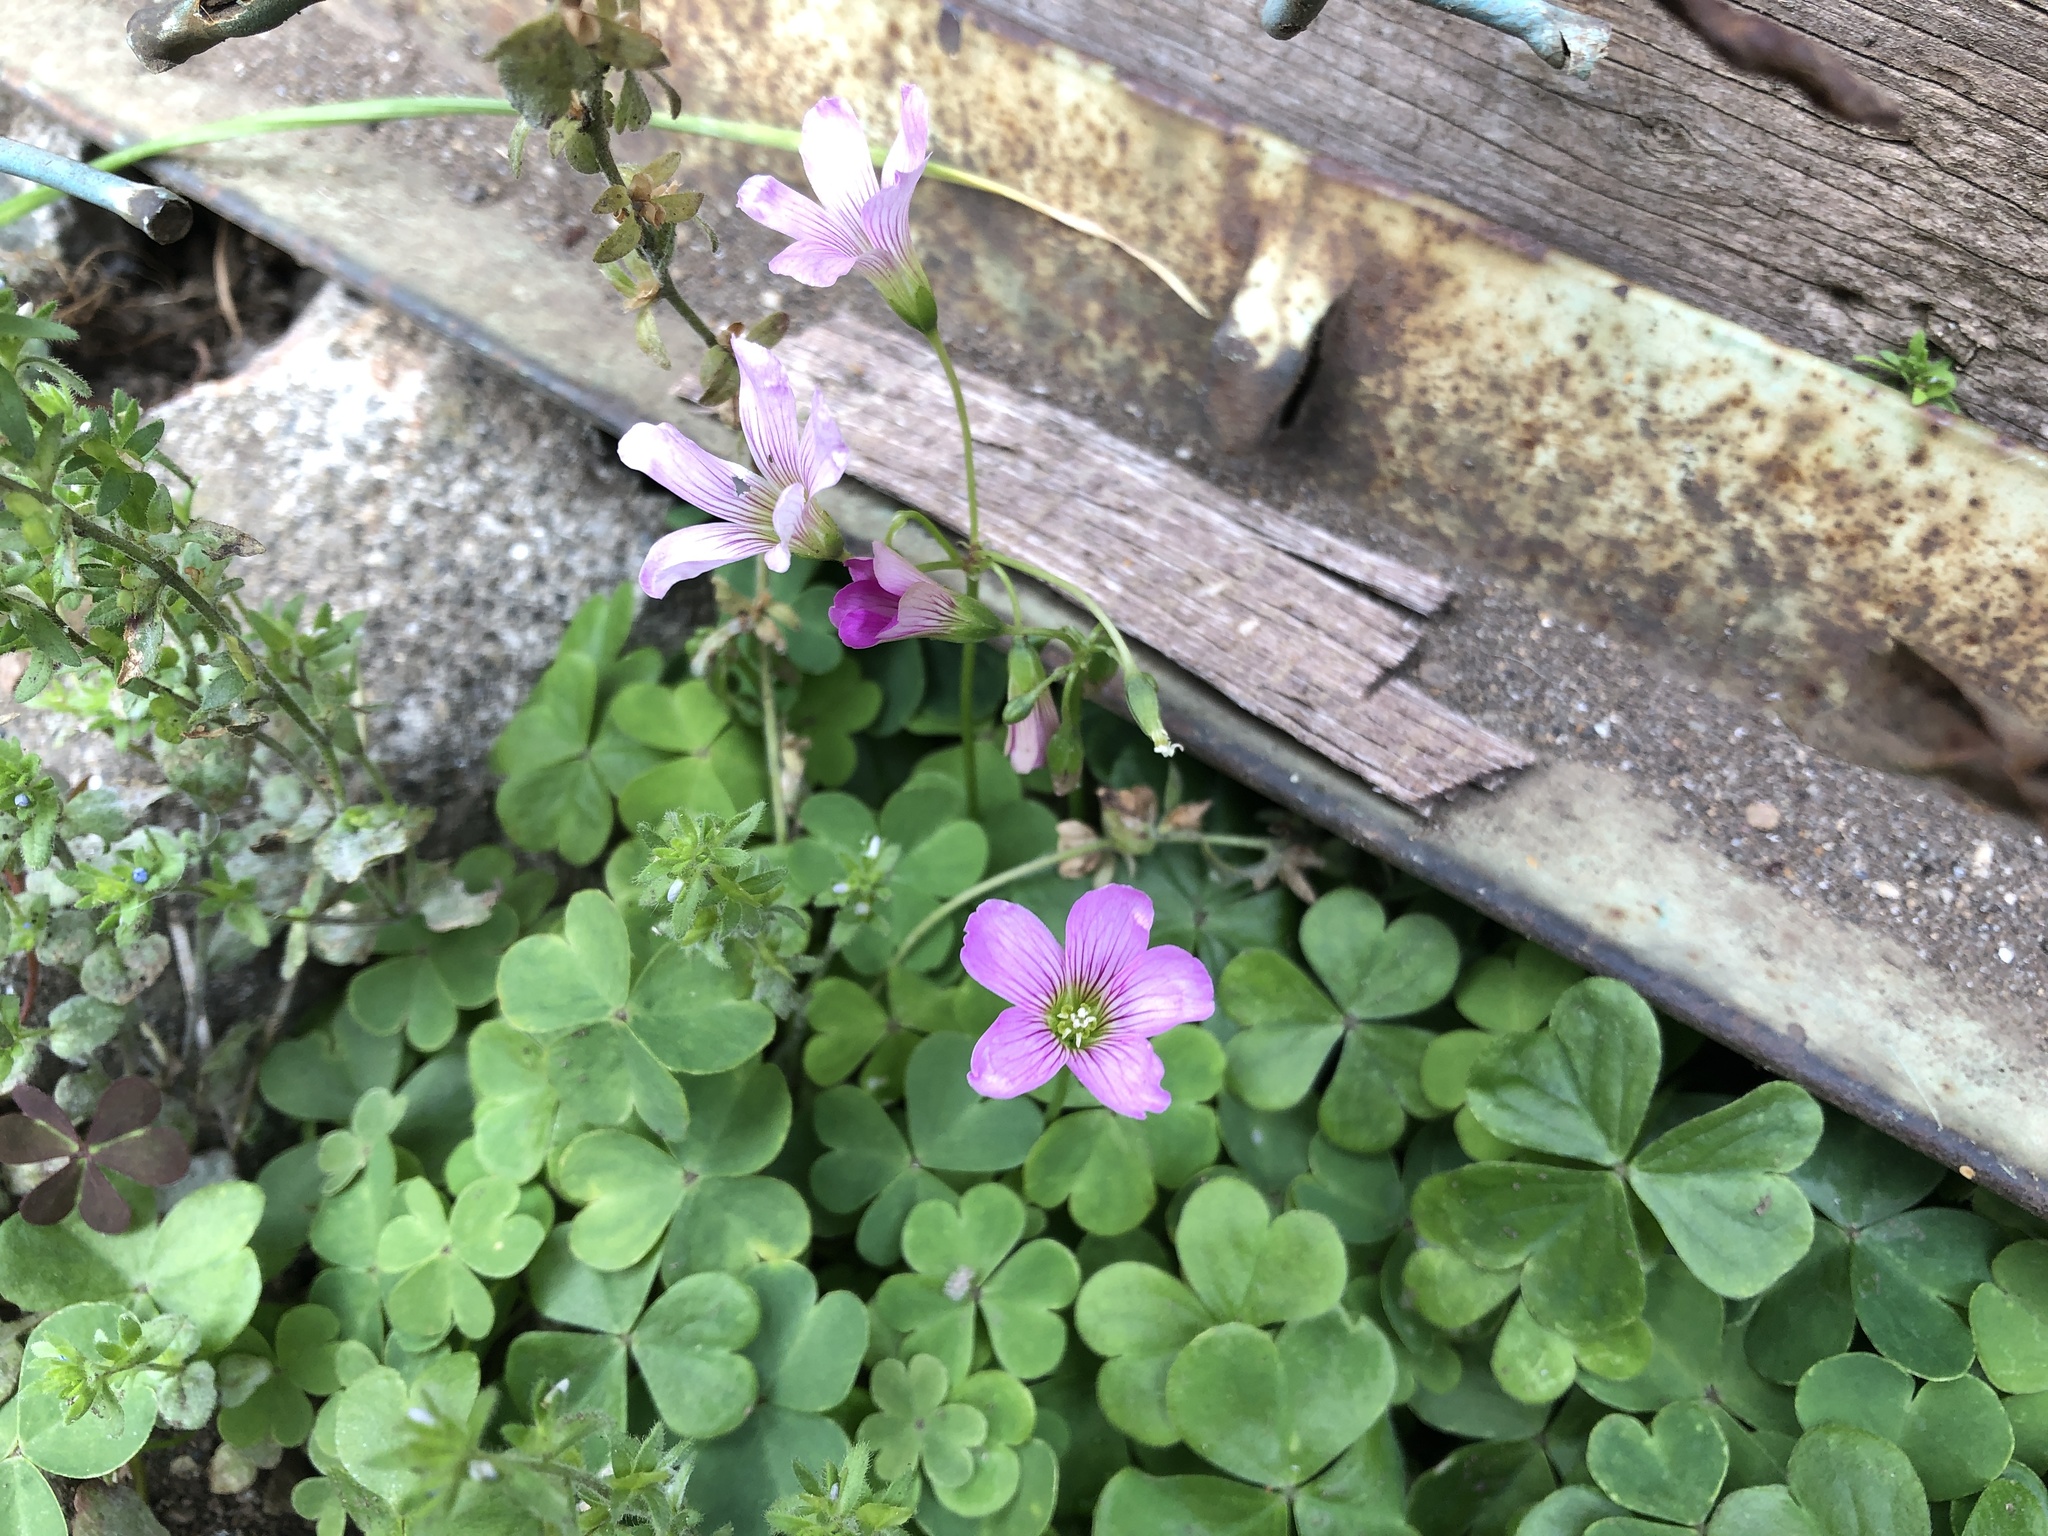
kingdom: Plantae
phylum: Tracheophyta
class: Magnoliopsida
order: Oxalidales
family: Oxalidaceae
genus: Oxalis
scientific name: Oxalis debilis
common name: Large-flowered pink-sorrel
